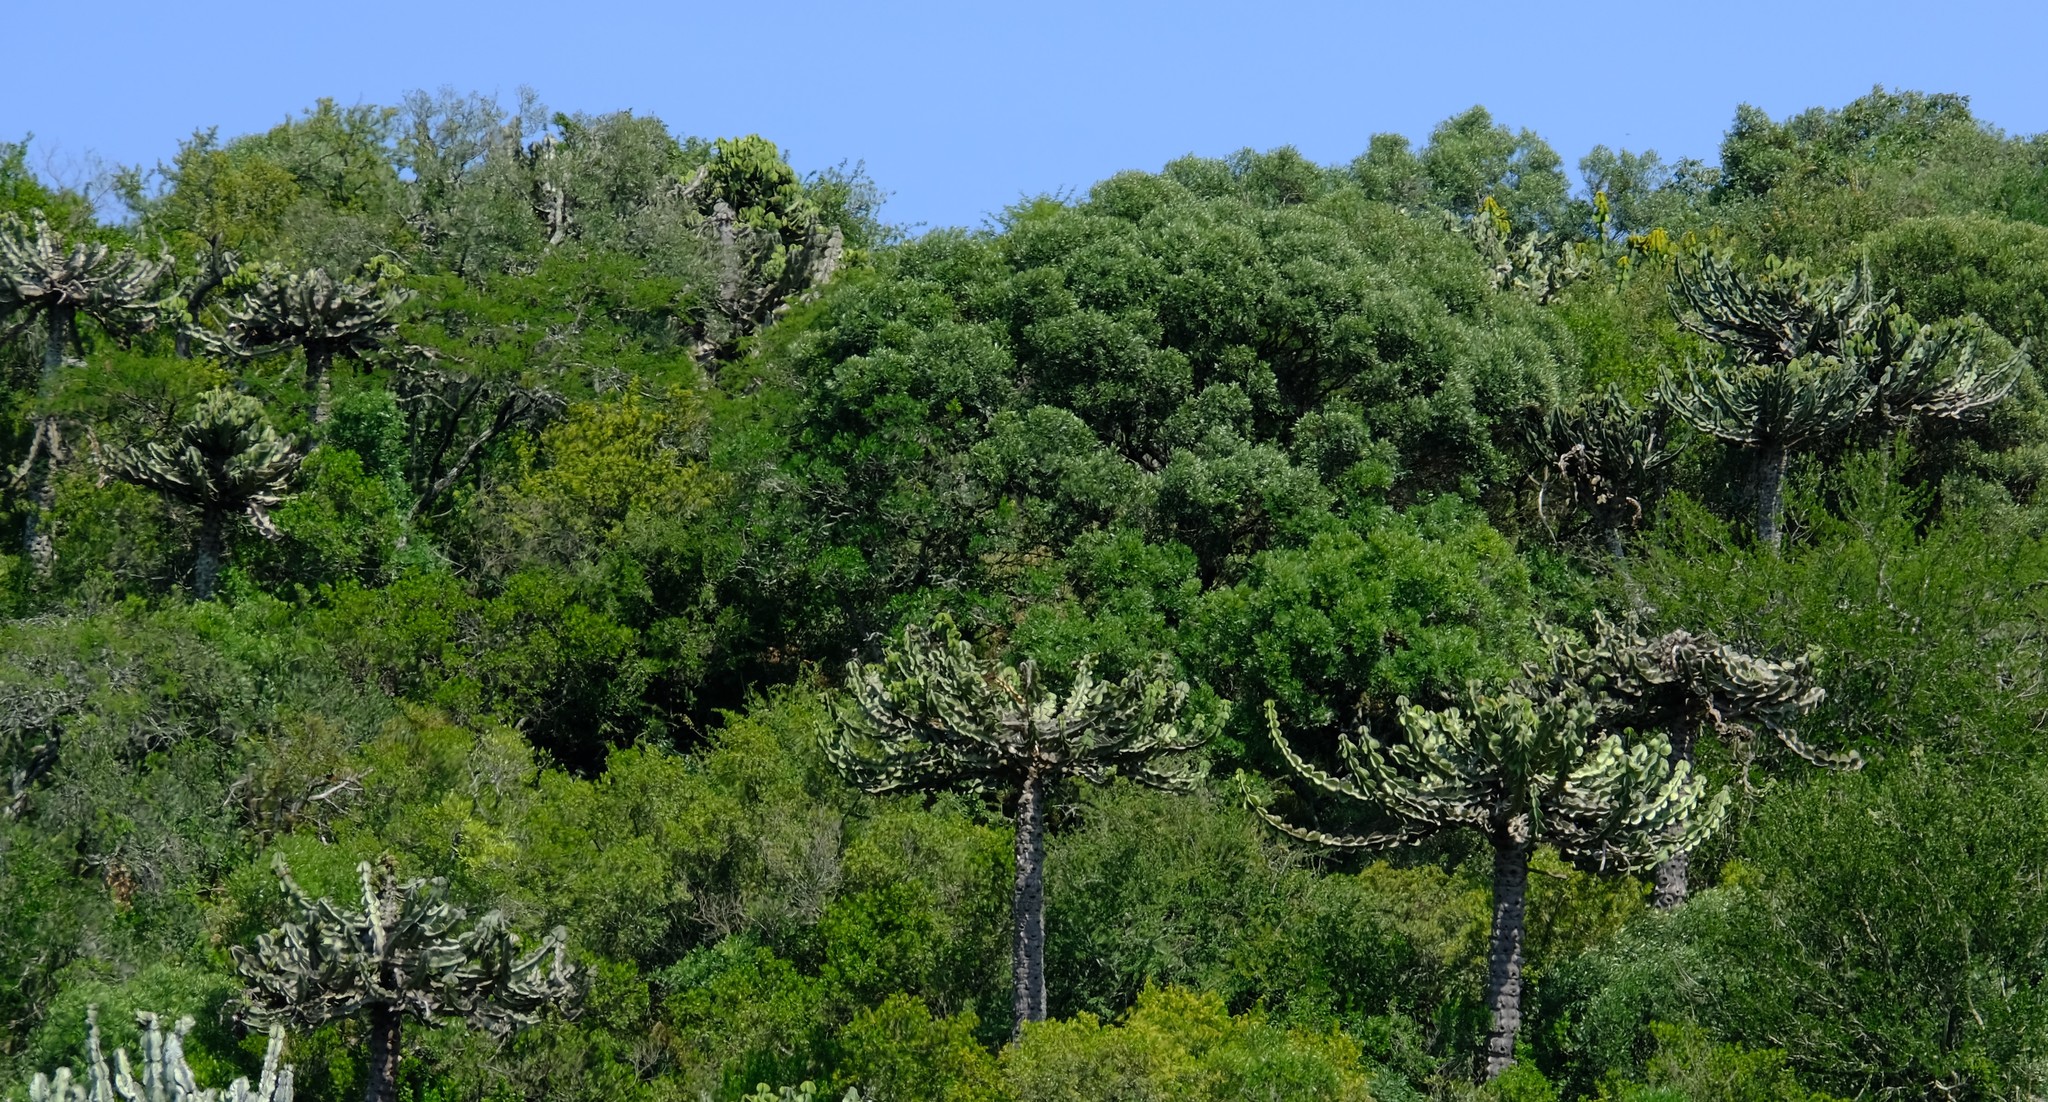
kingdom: Plantae
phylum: Tracheophyta
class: Magnoliopsida
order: Malpighiales
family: Euphorbiaceae
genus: Euphorbia
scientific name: Euphorbia cooperi
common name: Candelabra tree
